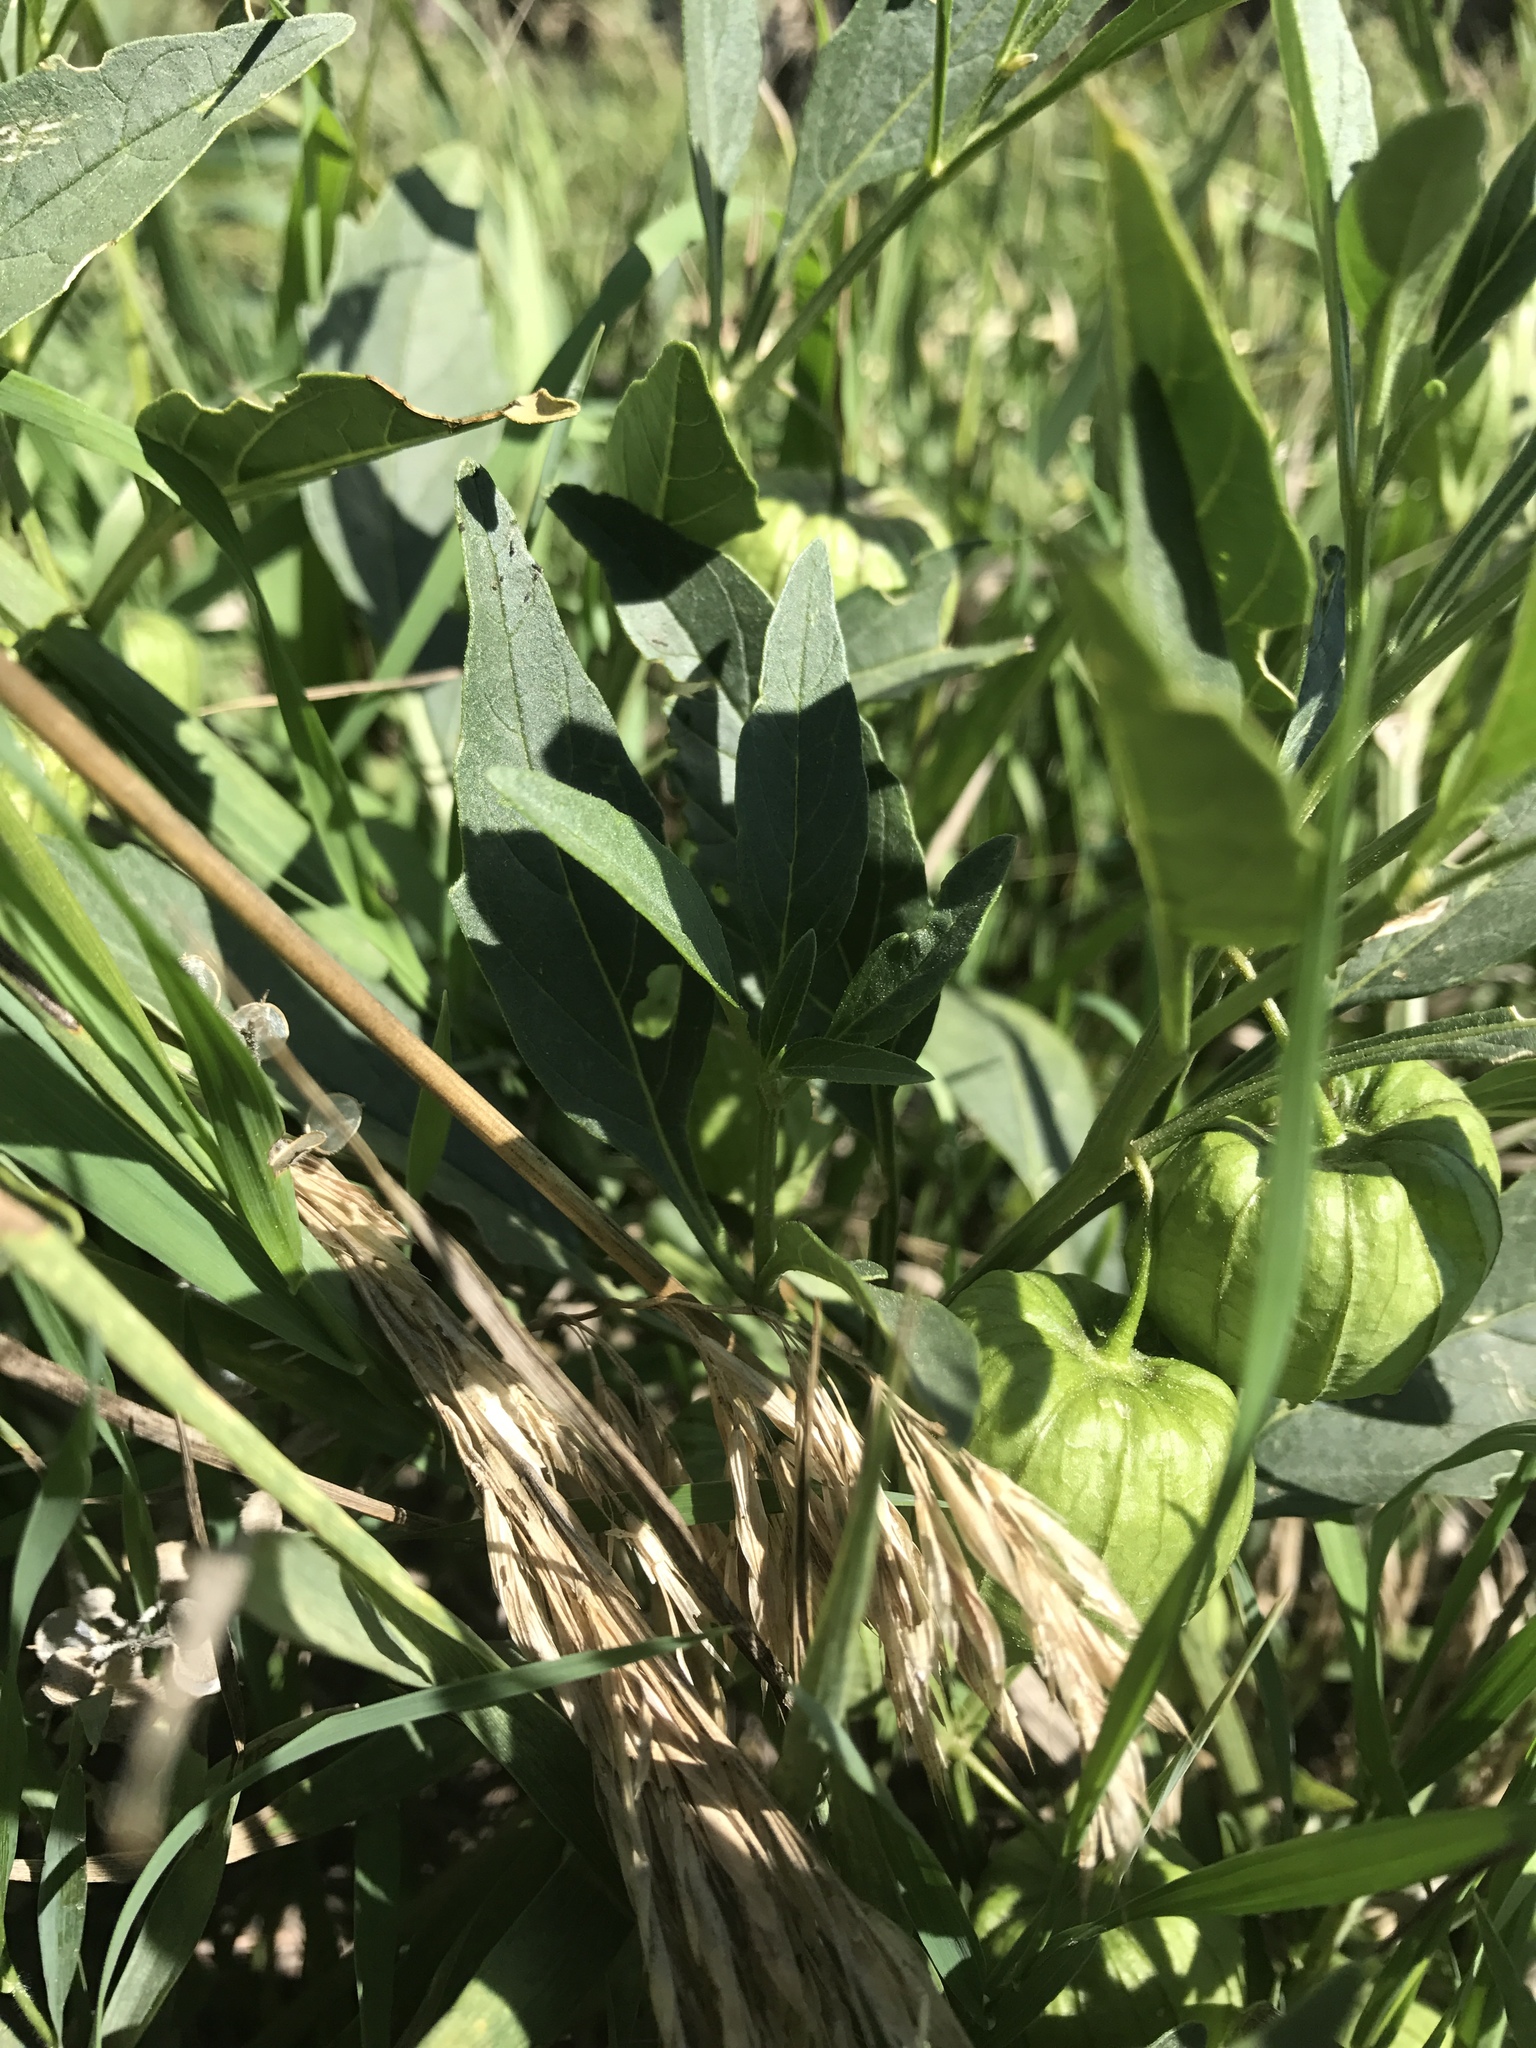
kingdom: Plantae
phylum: Tracheophyta
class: Magnoliopsida
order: Solanales
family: Solanaceae
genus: Physalis
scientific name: Physalis longifolia
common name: Common ground-cherry
